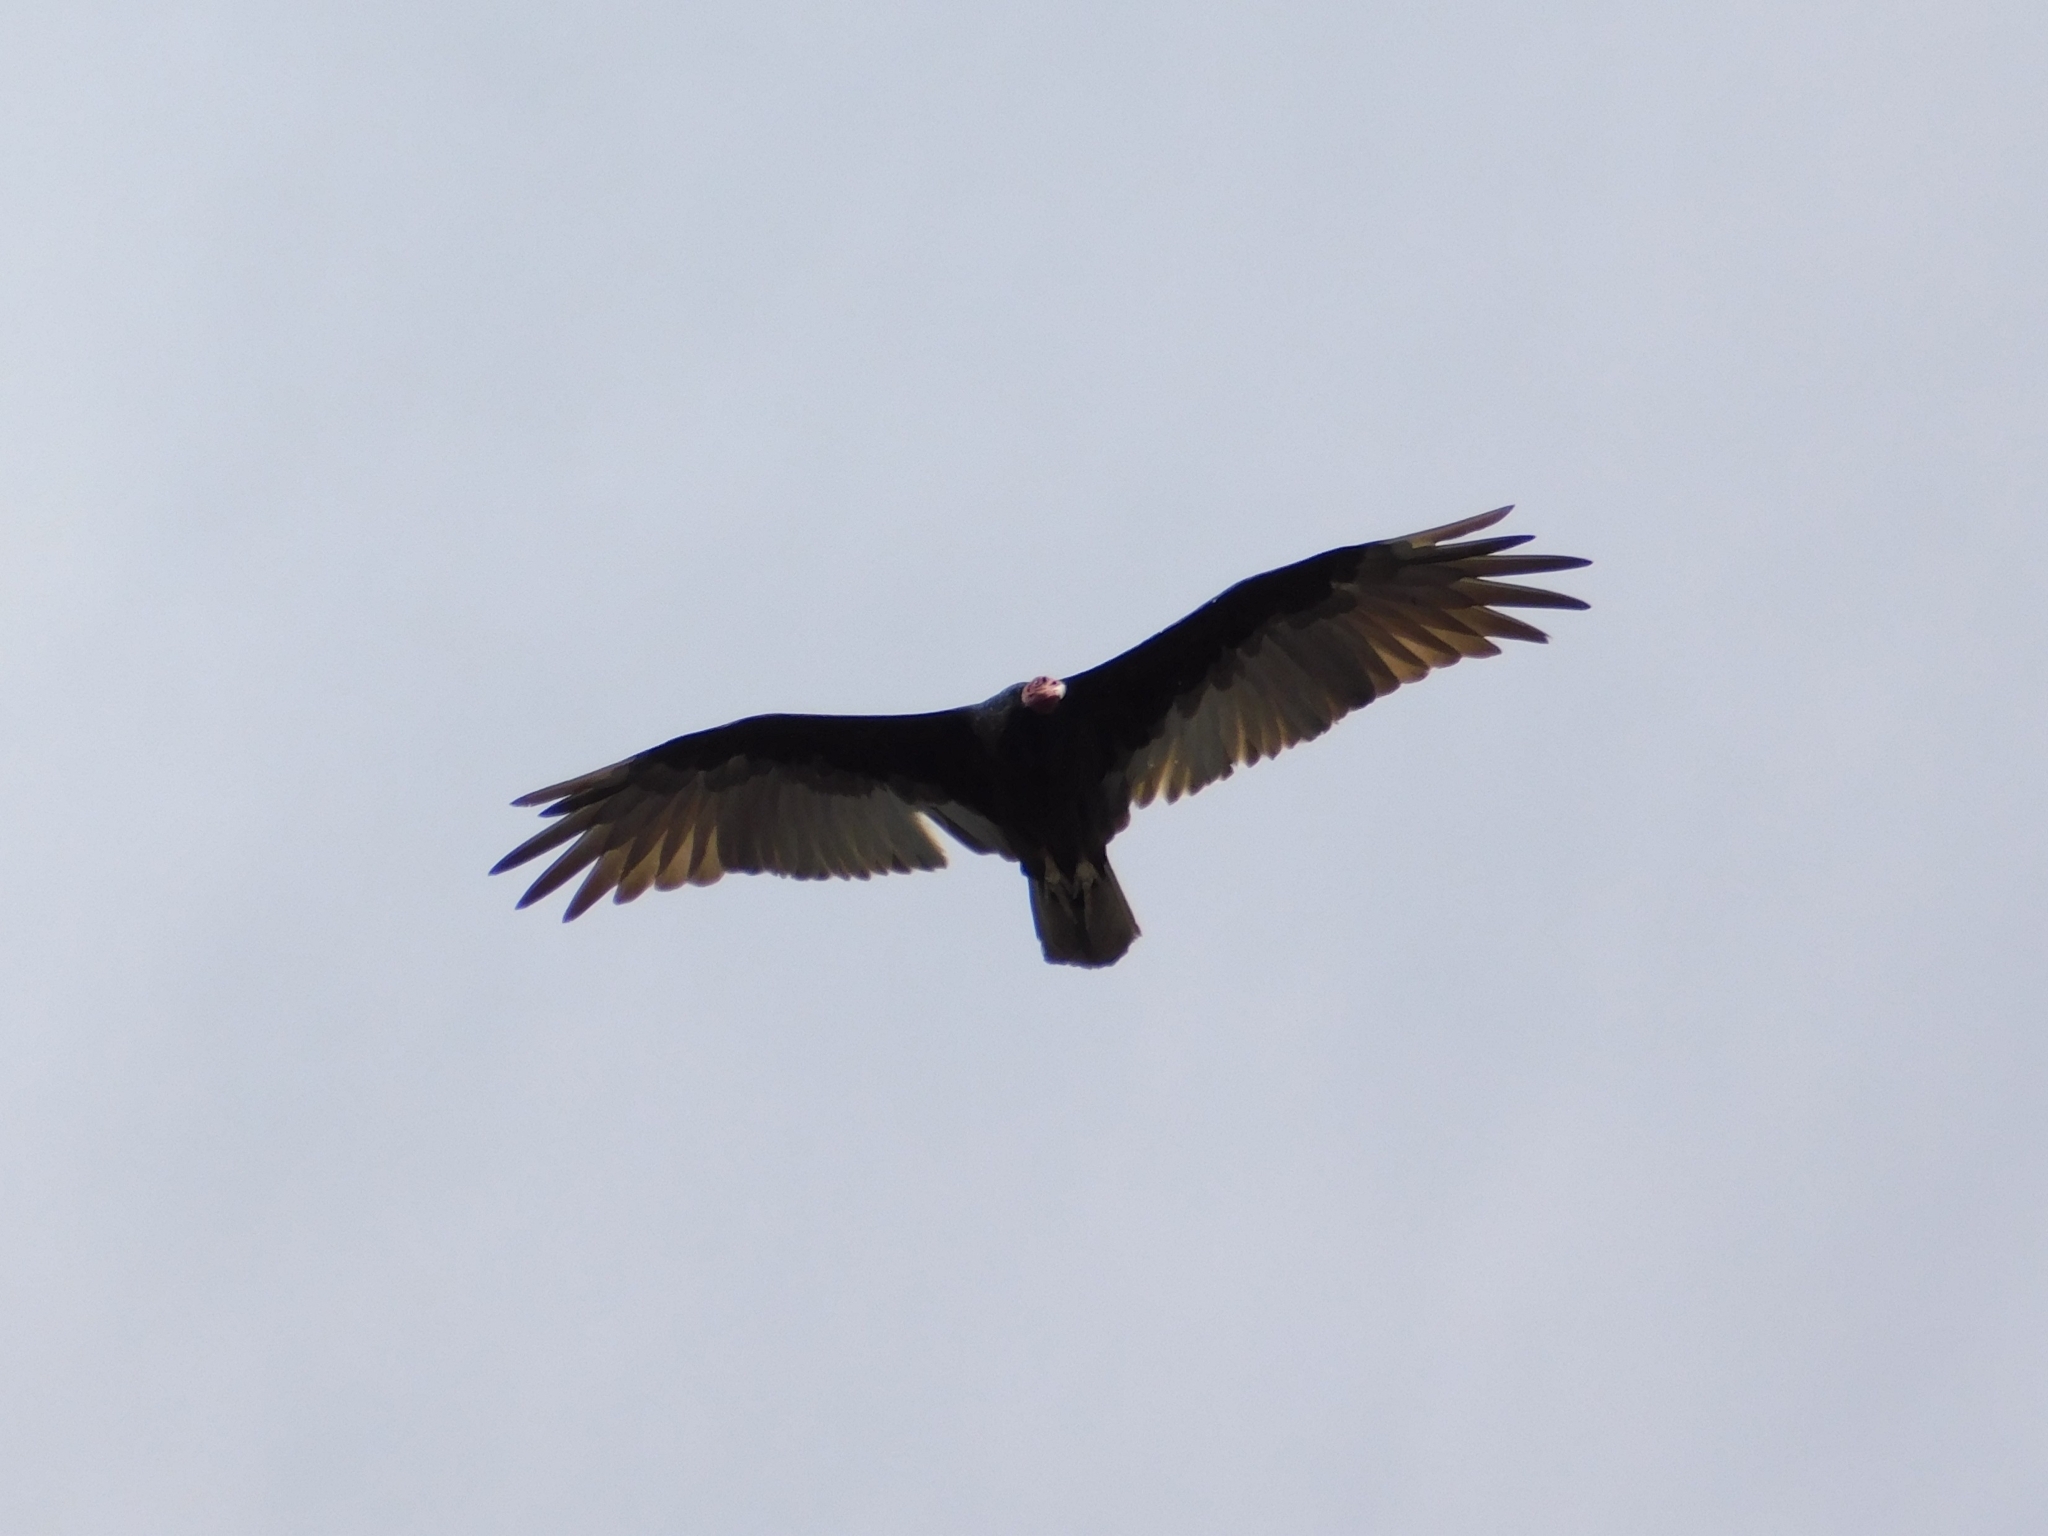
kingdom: Animalia
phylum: Chordata
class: Aves
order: Accipitriformes
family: Cathartidae
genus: Cathartes
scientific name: Cathartes aura
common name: Turkey vulture
